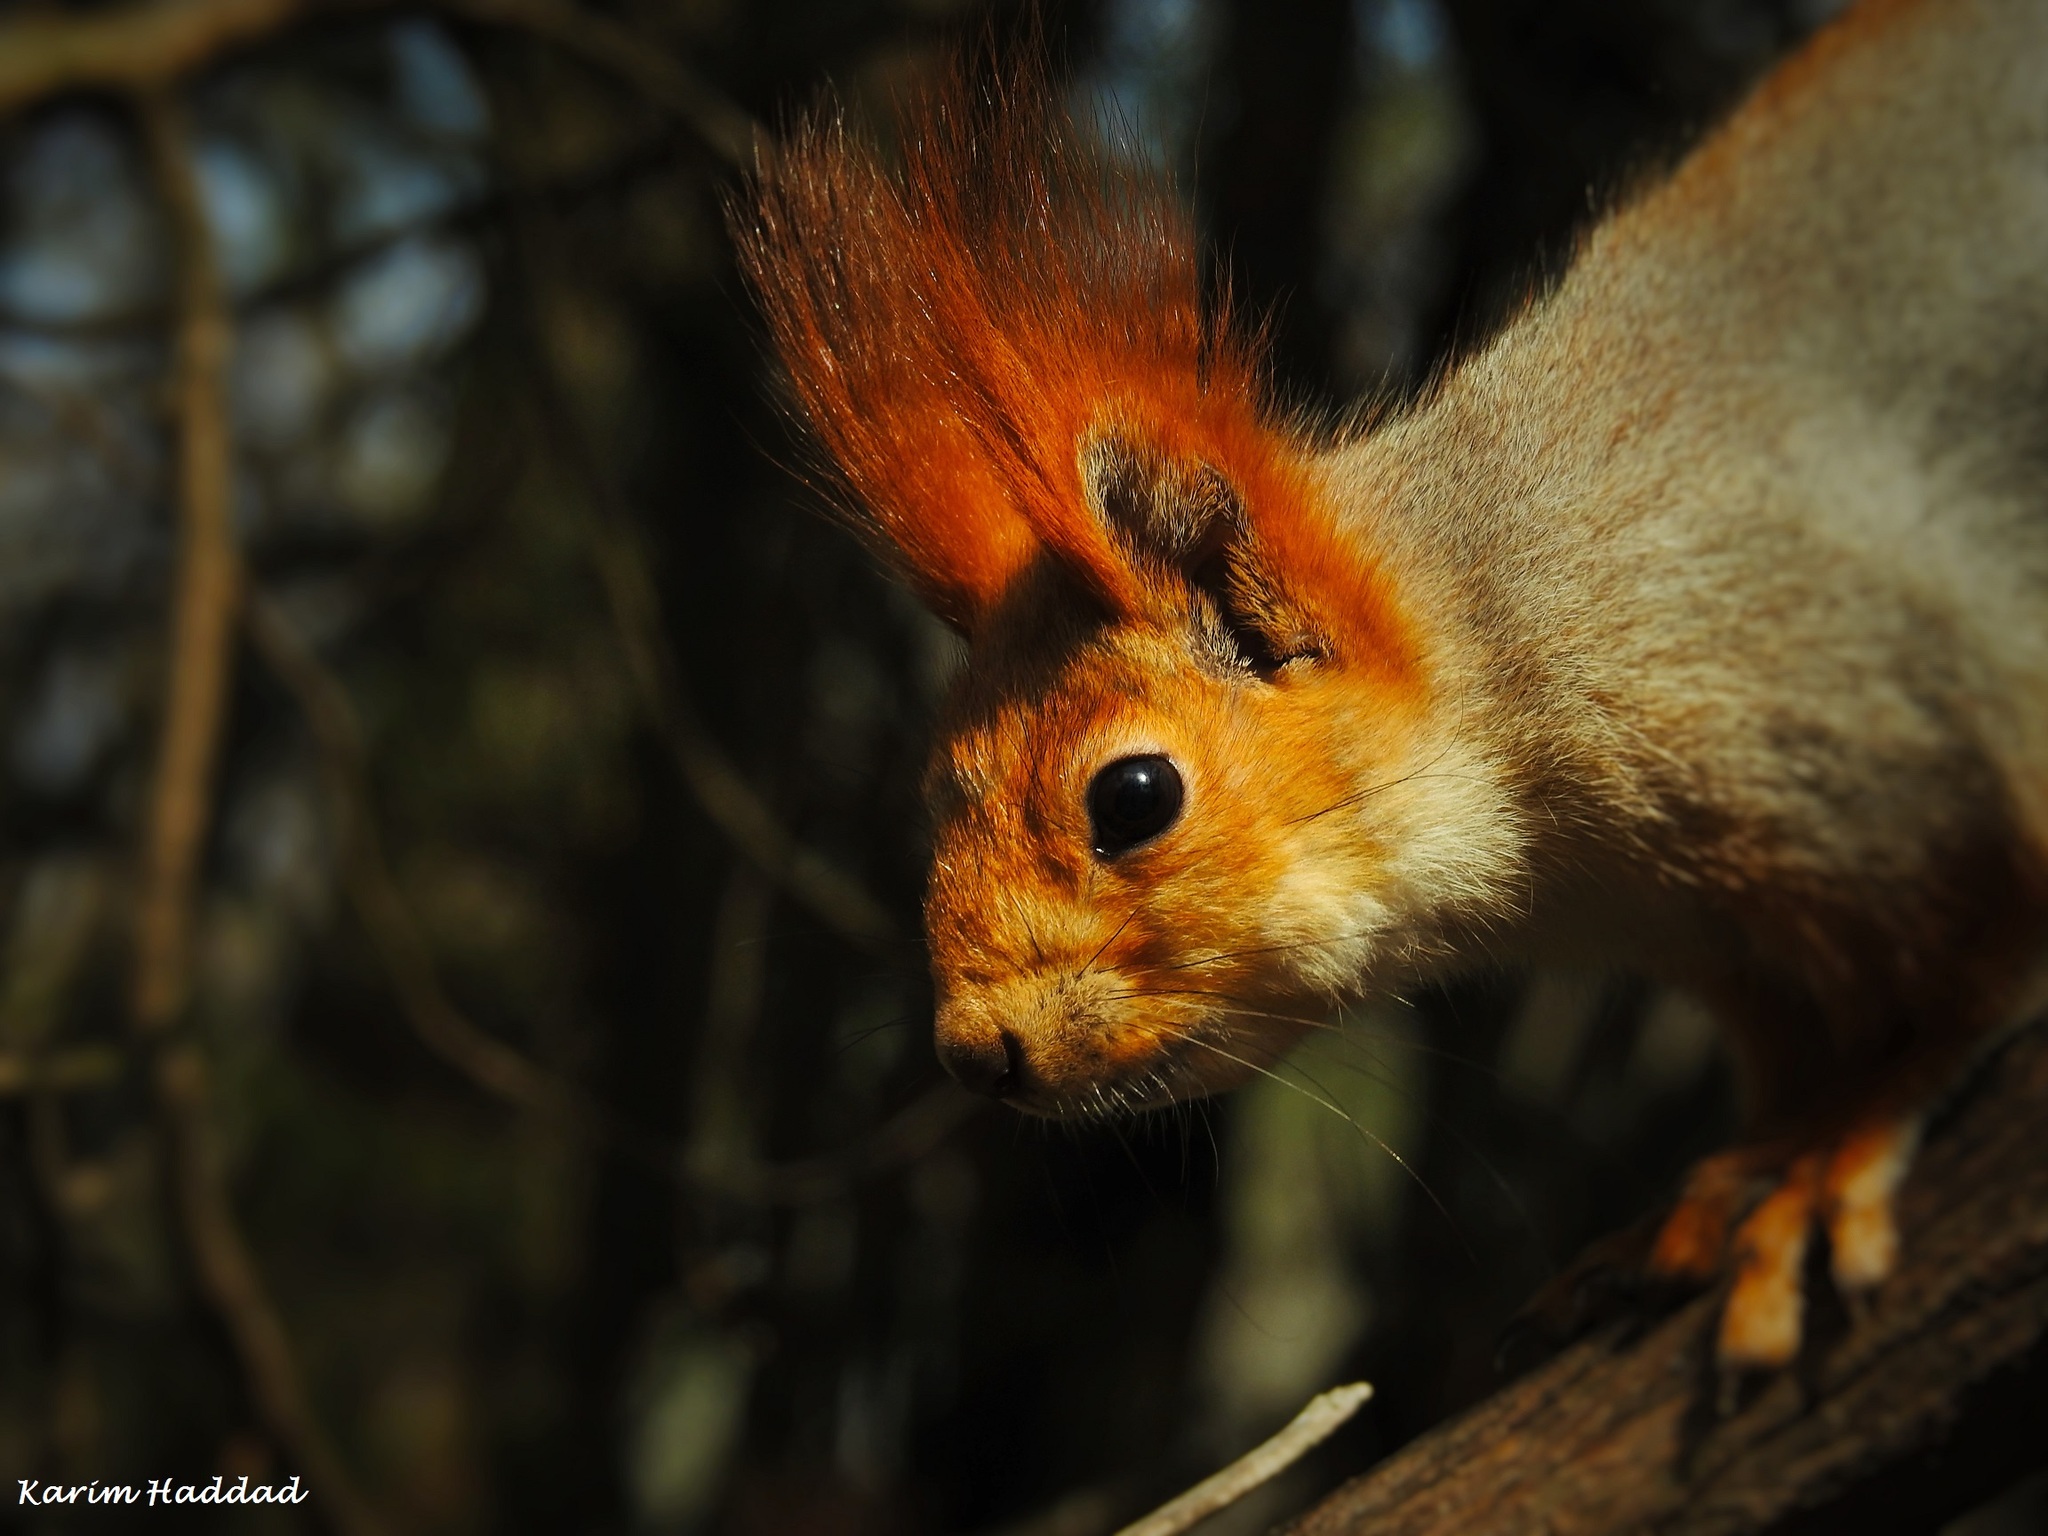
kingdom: Animalia
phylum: Chordata
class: Mammalia
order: Rodentia
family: Sciuridae
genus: Sciurus
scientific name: Sciurus vulgaris
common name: Eurasian red squirrel
